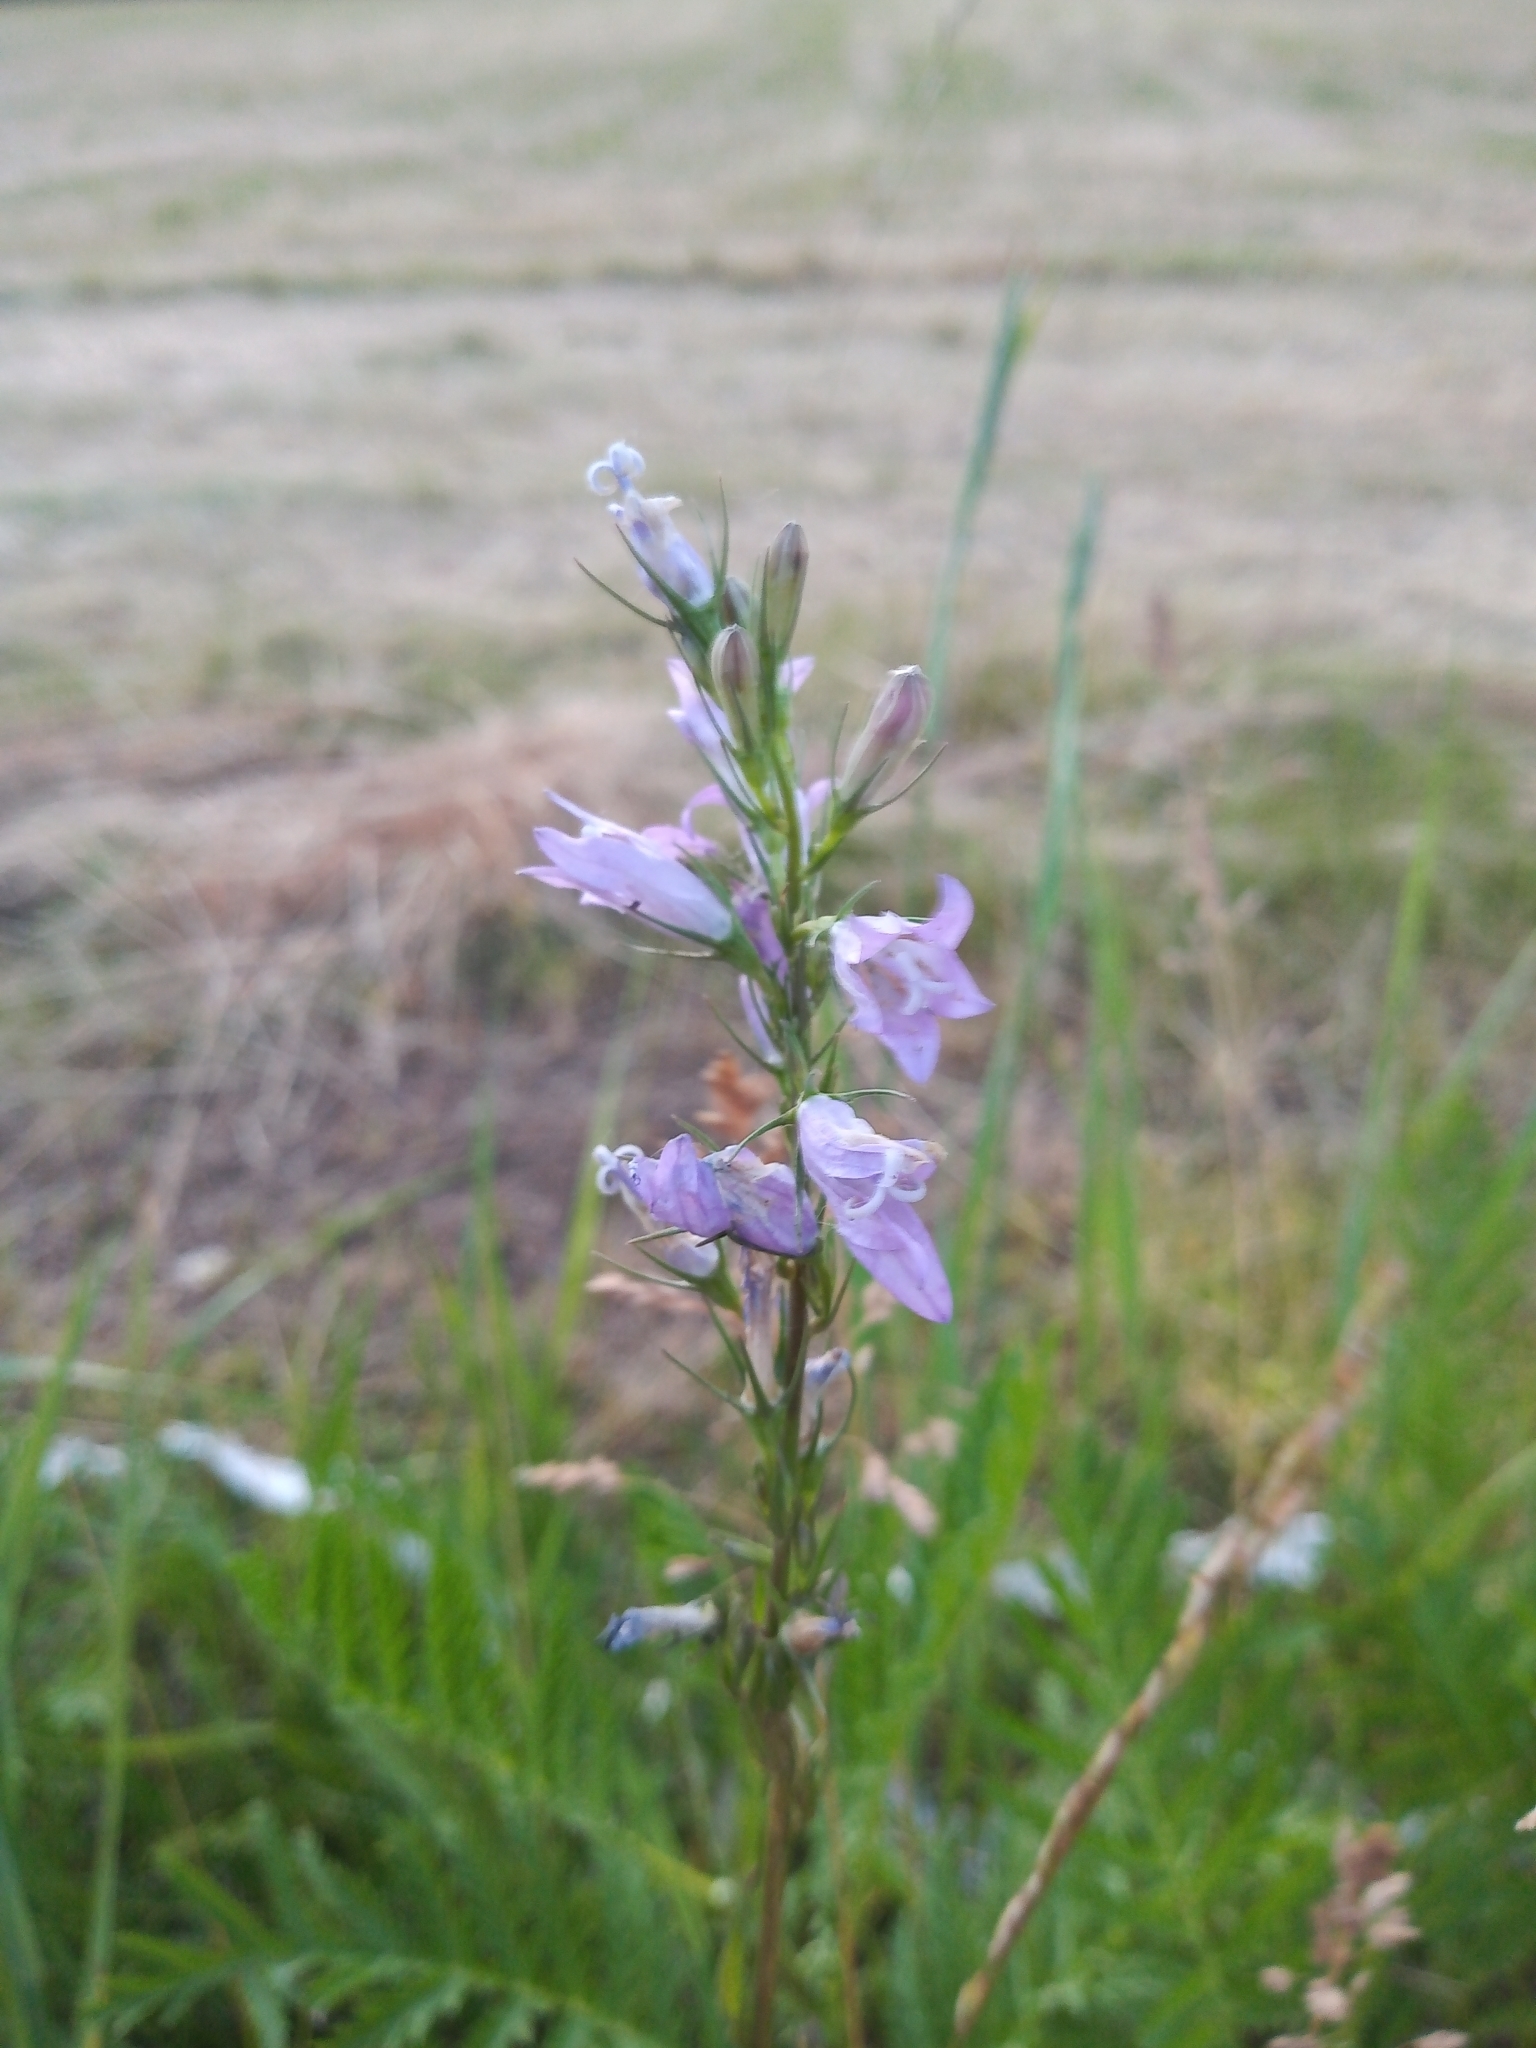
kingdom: Plantae
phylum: Tracheophyta
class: Magnoliopsida
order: Asterales
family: Campanulaceae
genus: Campanula
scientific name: Campanula rapunculus
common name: Rampion bellflower
